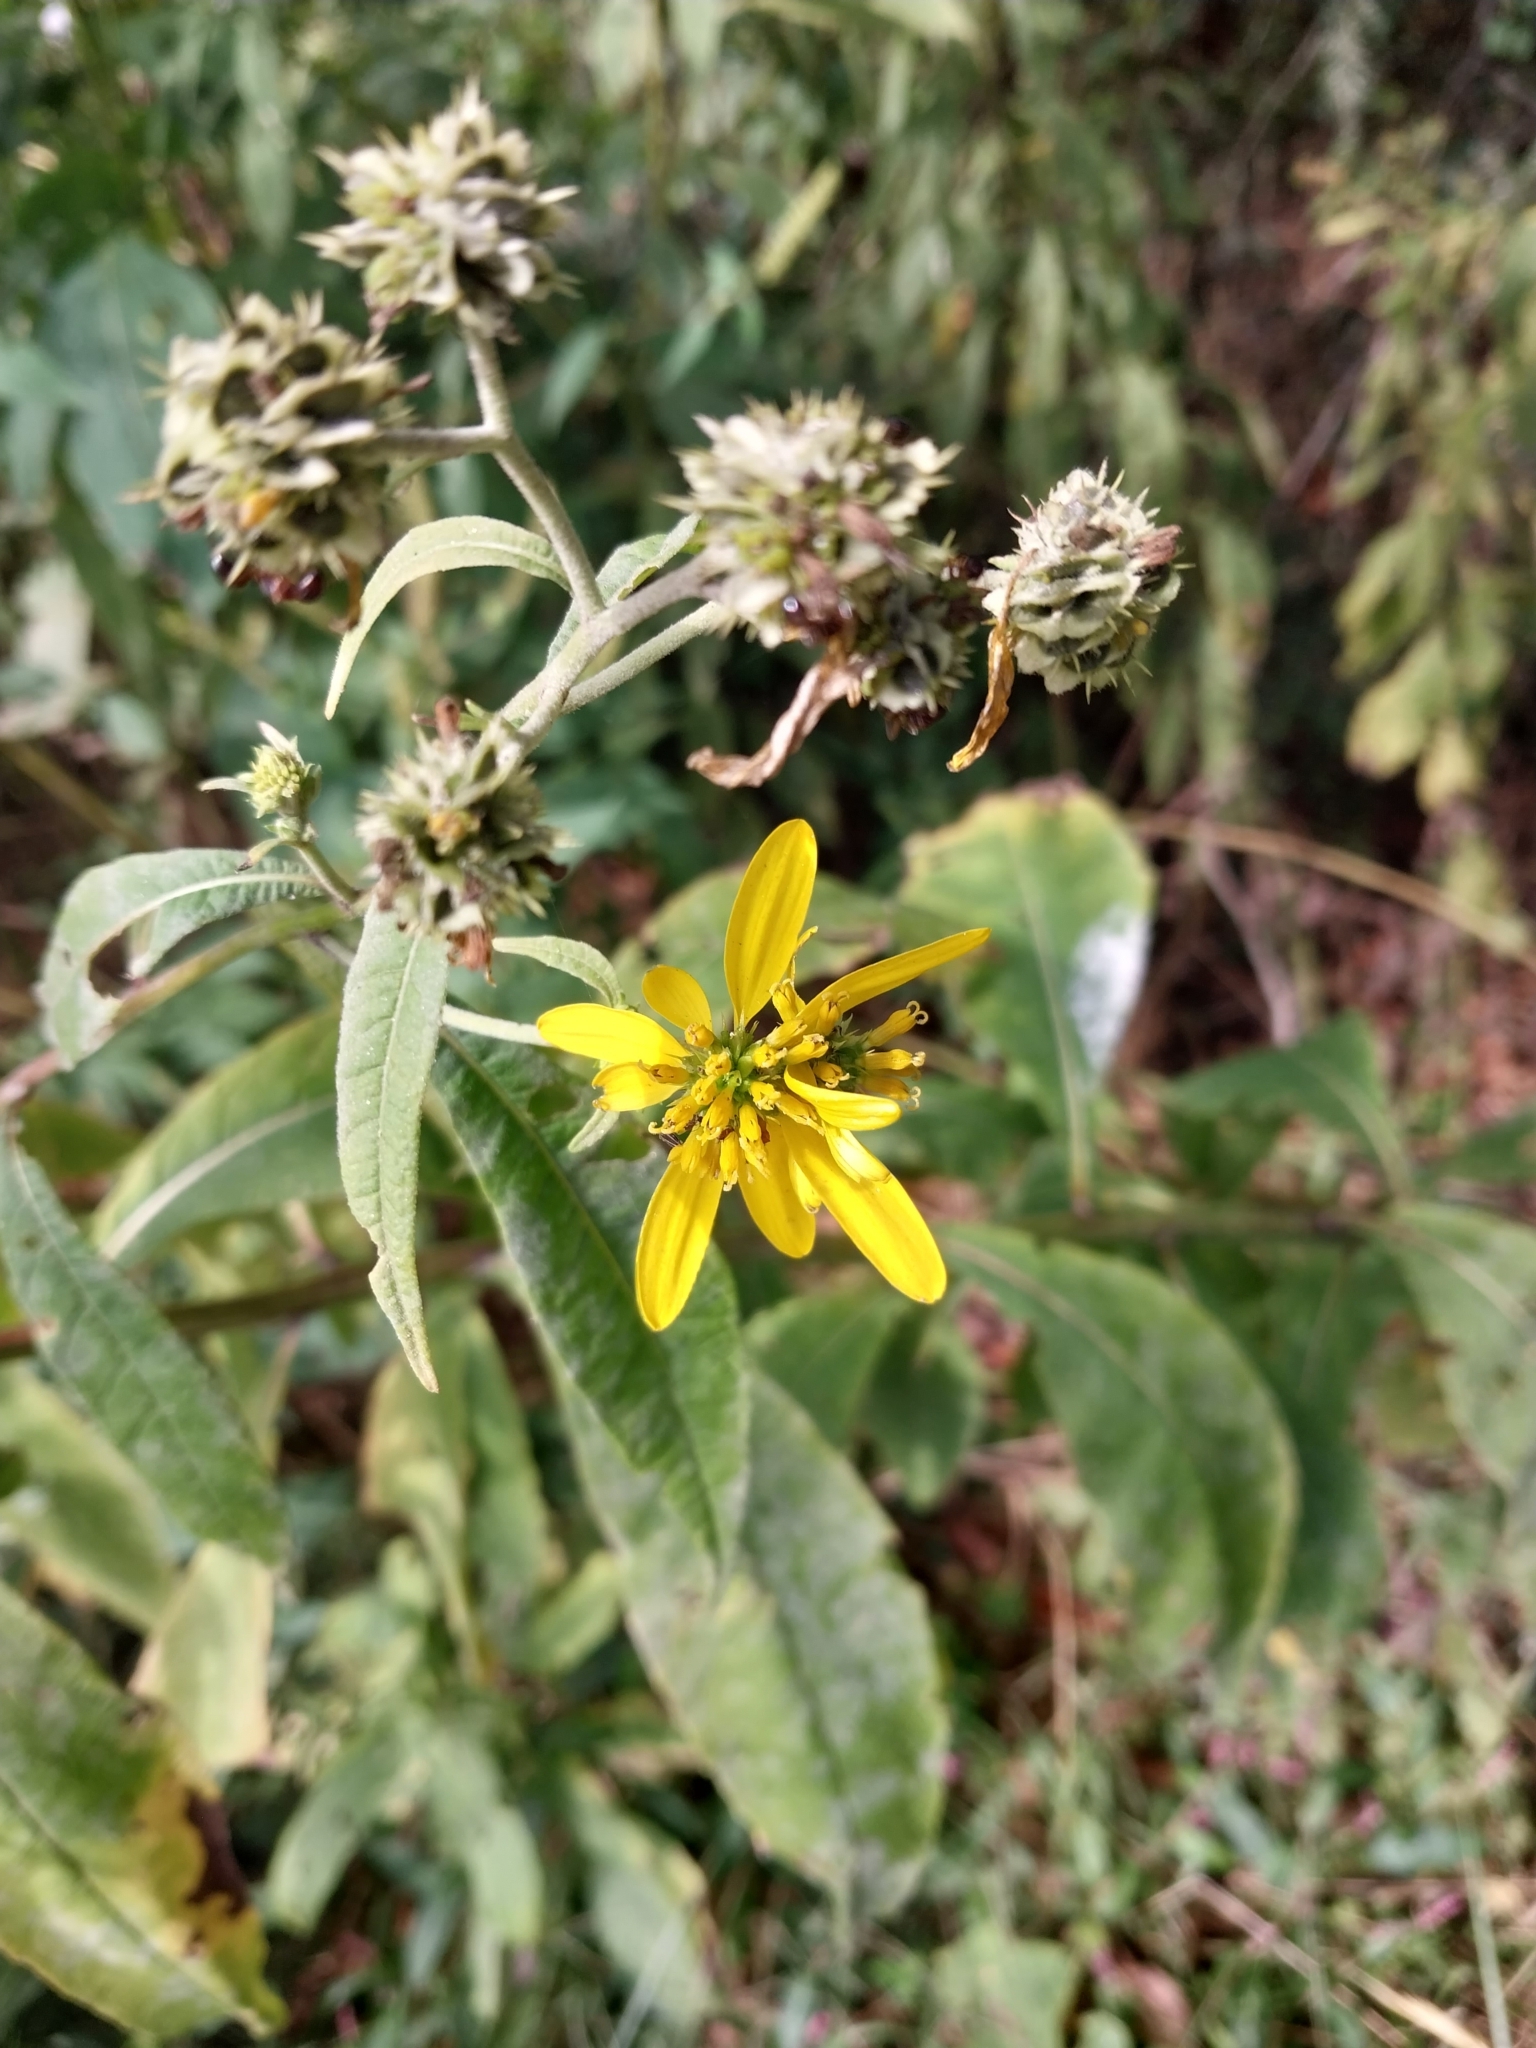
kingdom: Plantae
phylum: Tracheophyta
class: Magnoliopsida
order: Asterales
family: Asteraceae
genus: Verbesina
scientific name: Verbesina alternifolia
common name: Wingstem
